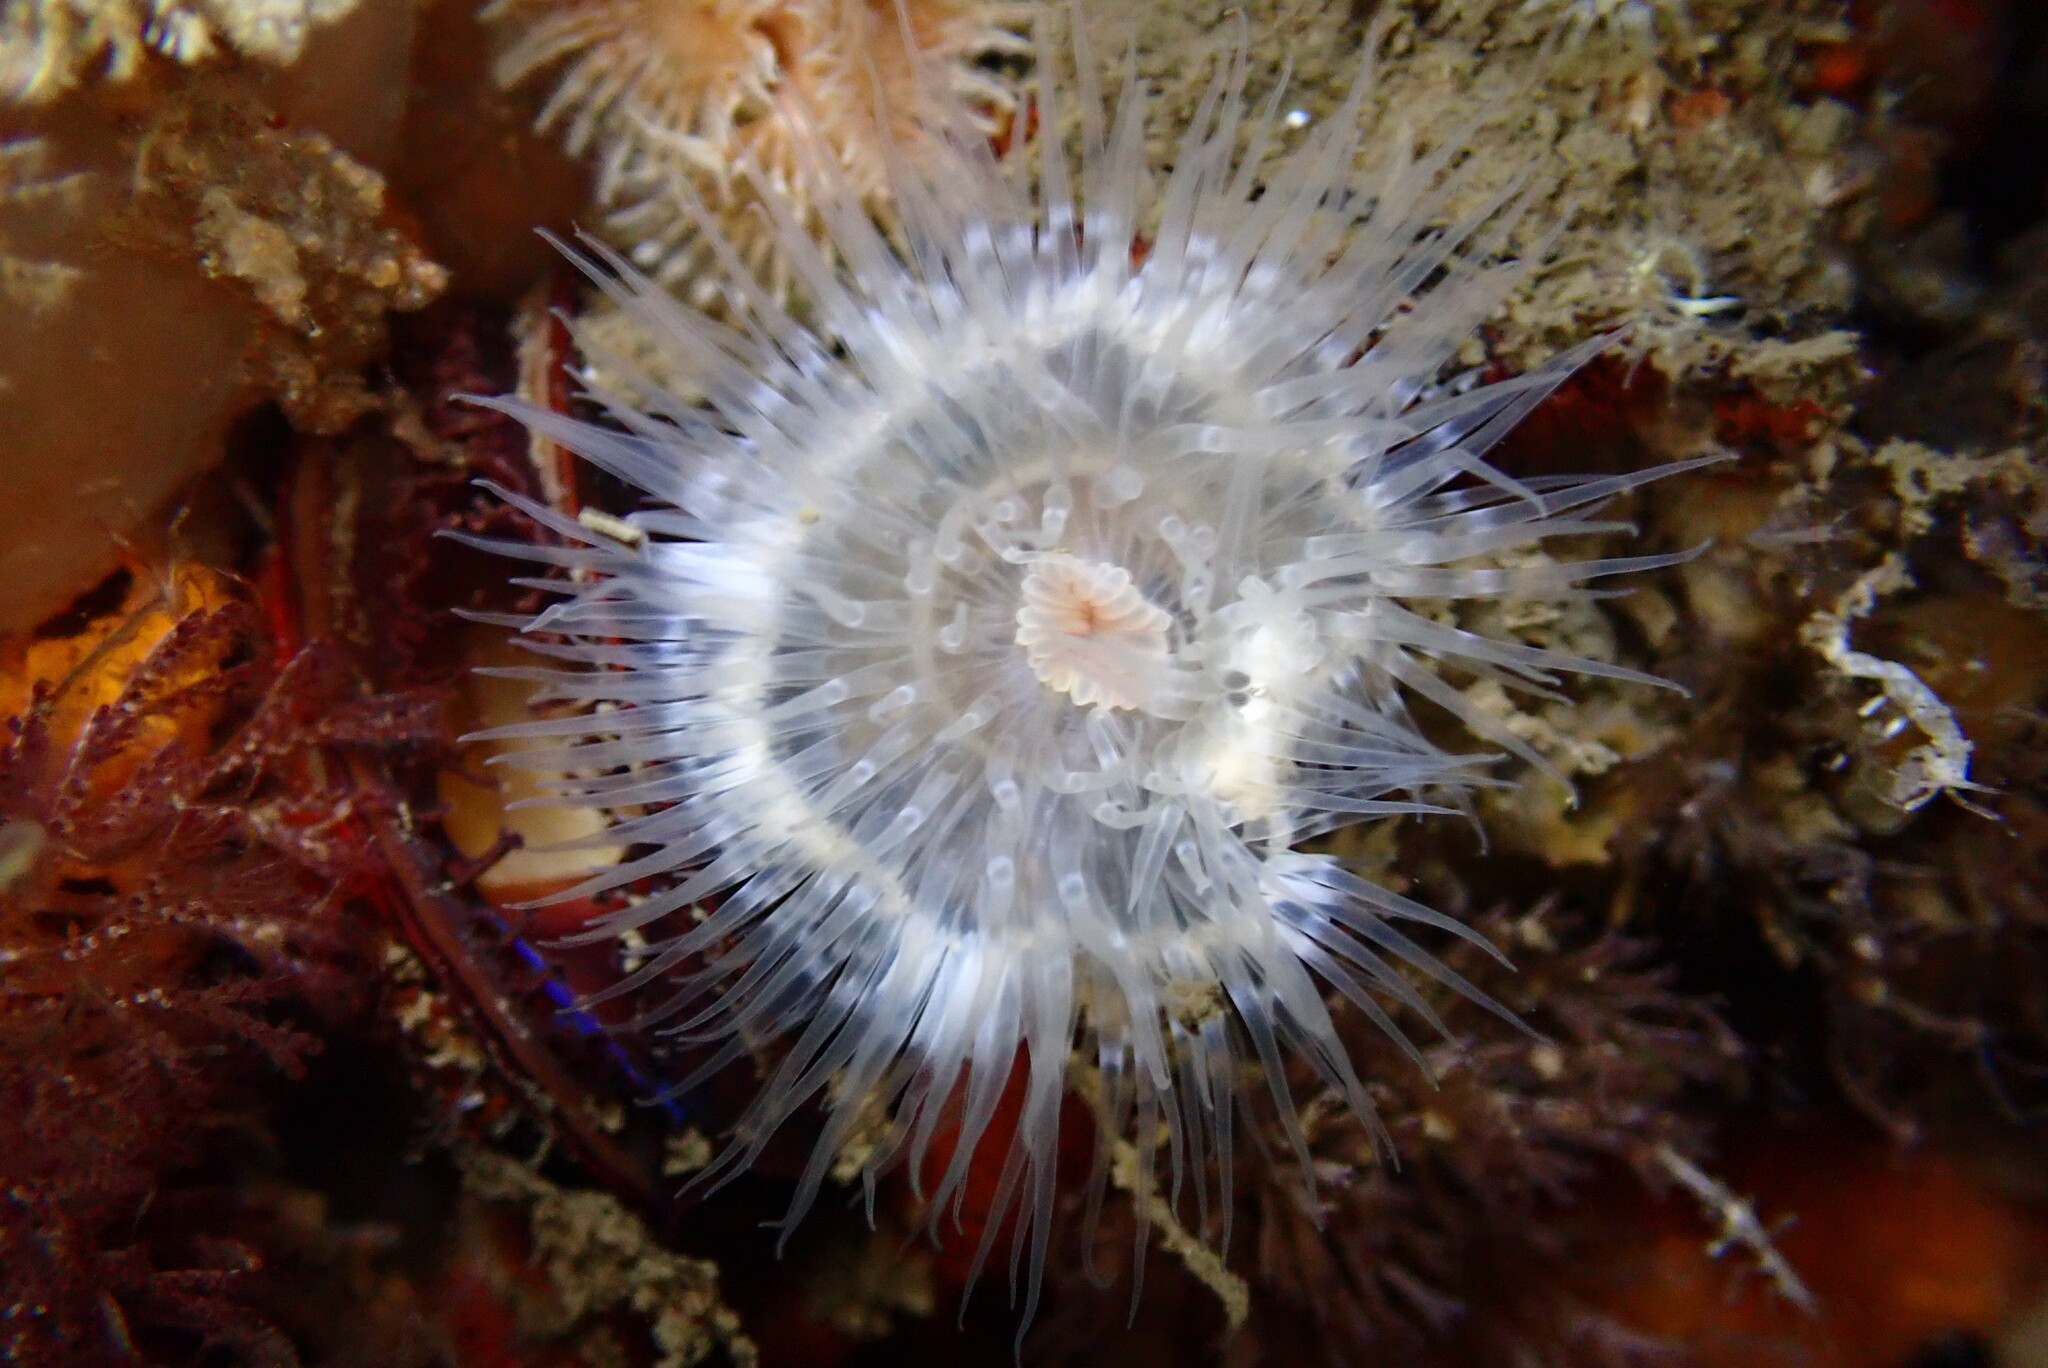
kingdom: Animalia
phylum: Cnidaria
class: Anthozoa
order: Actiniaria
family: Metridiidae
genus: Metridium
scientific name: Metridium senile
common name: Clonal plumose anemone
